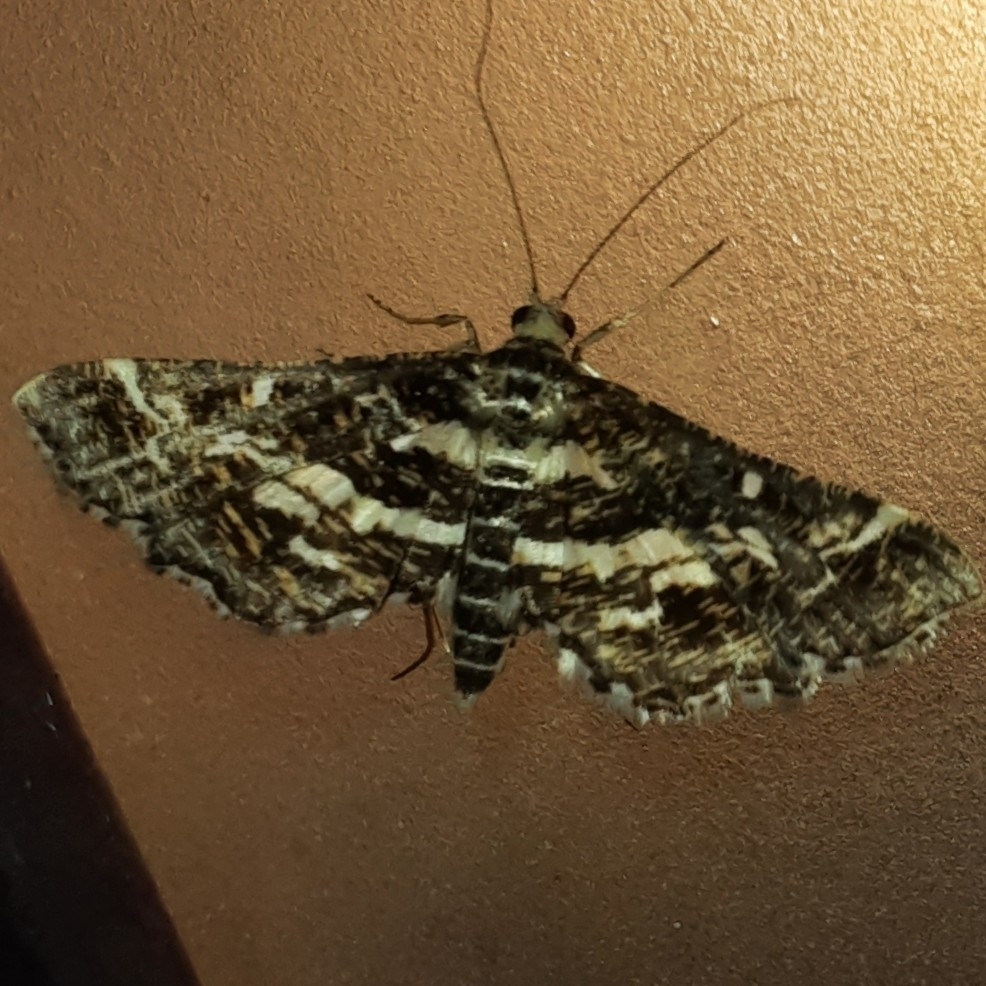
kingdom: Animalia
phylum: Arthropoda
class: Insecta
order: Lepidoptera
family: Crambidae
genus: Diasemiopsis
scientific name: Diasemiopsis ramburialis
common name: Vagrant china-mark
